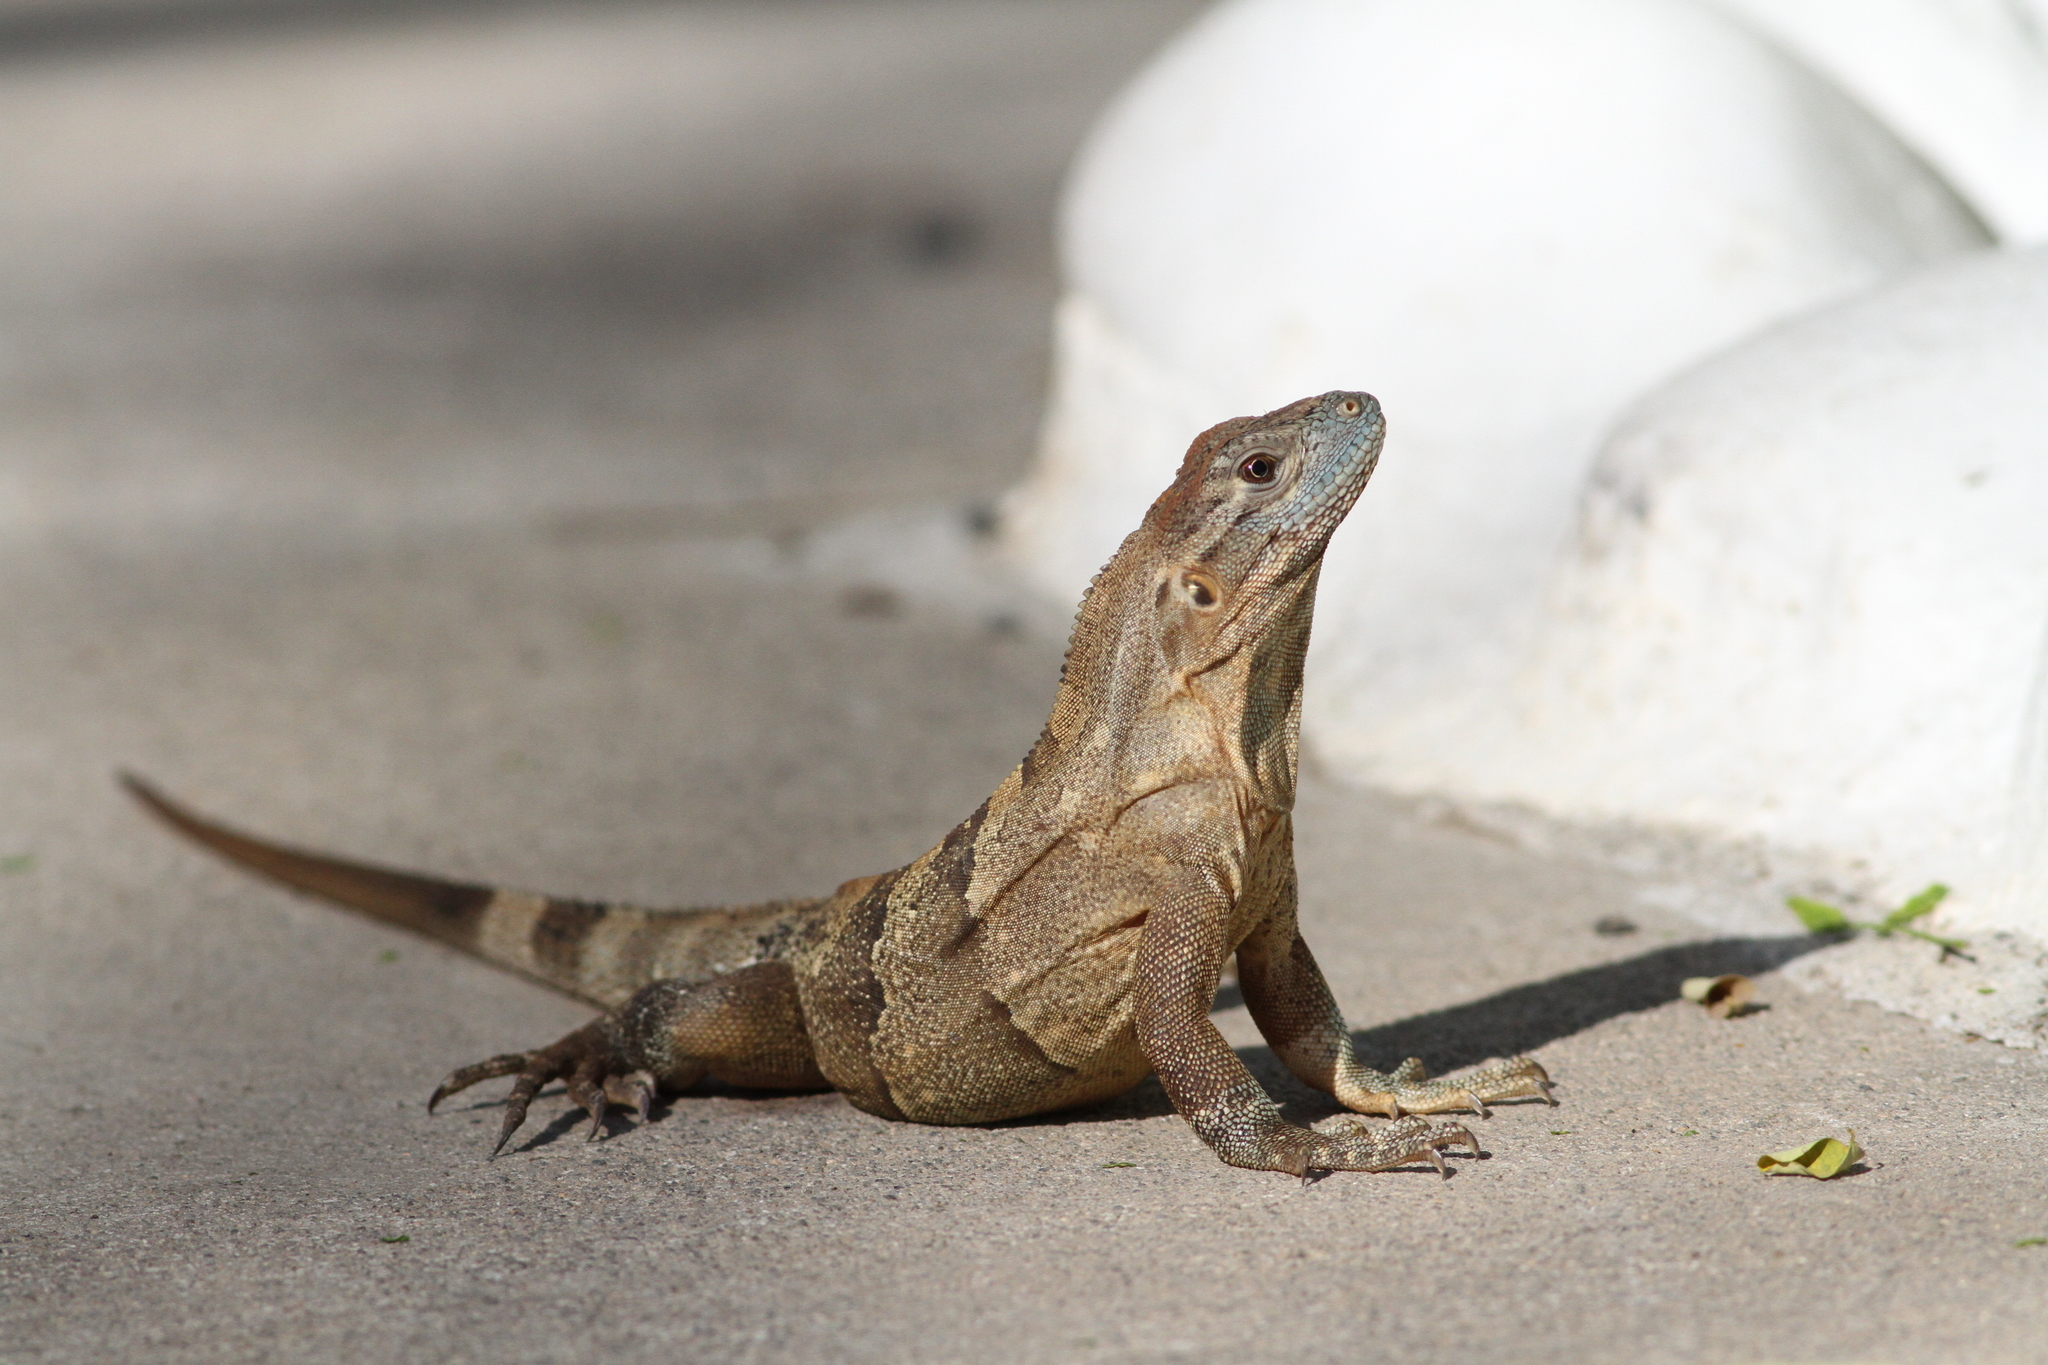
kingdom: Animalia
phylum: Chordata
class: Squamata
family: Iguanidae
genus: Ctenosaura
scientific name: Ctenosaura similis
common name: Black spiny-tailed iguana
